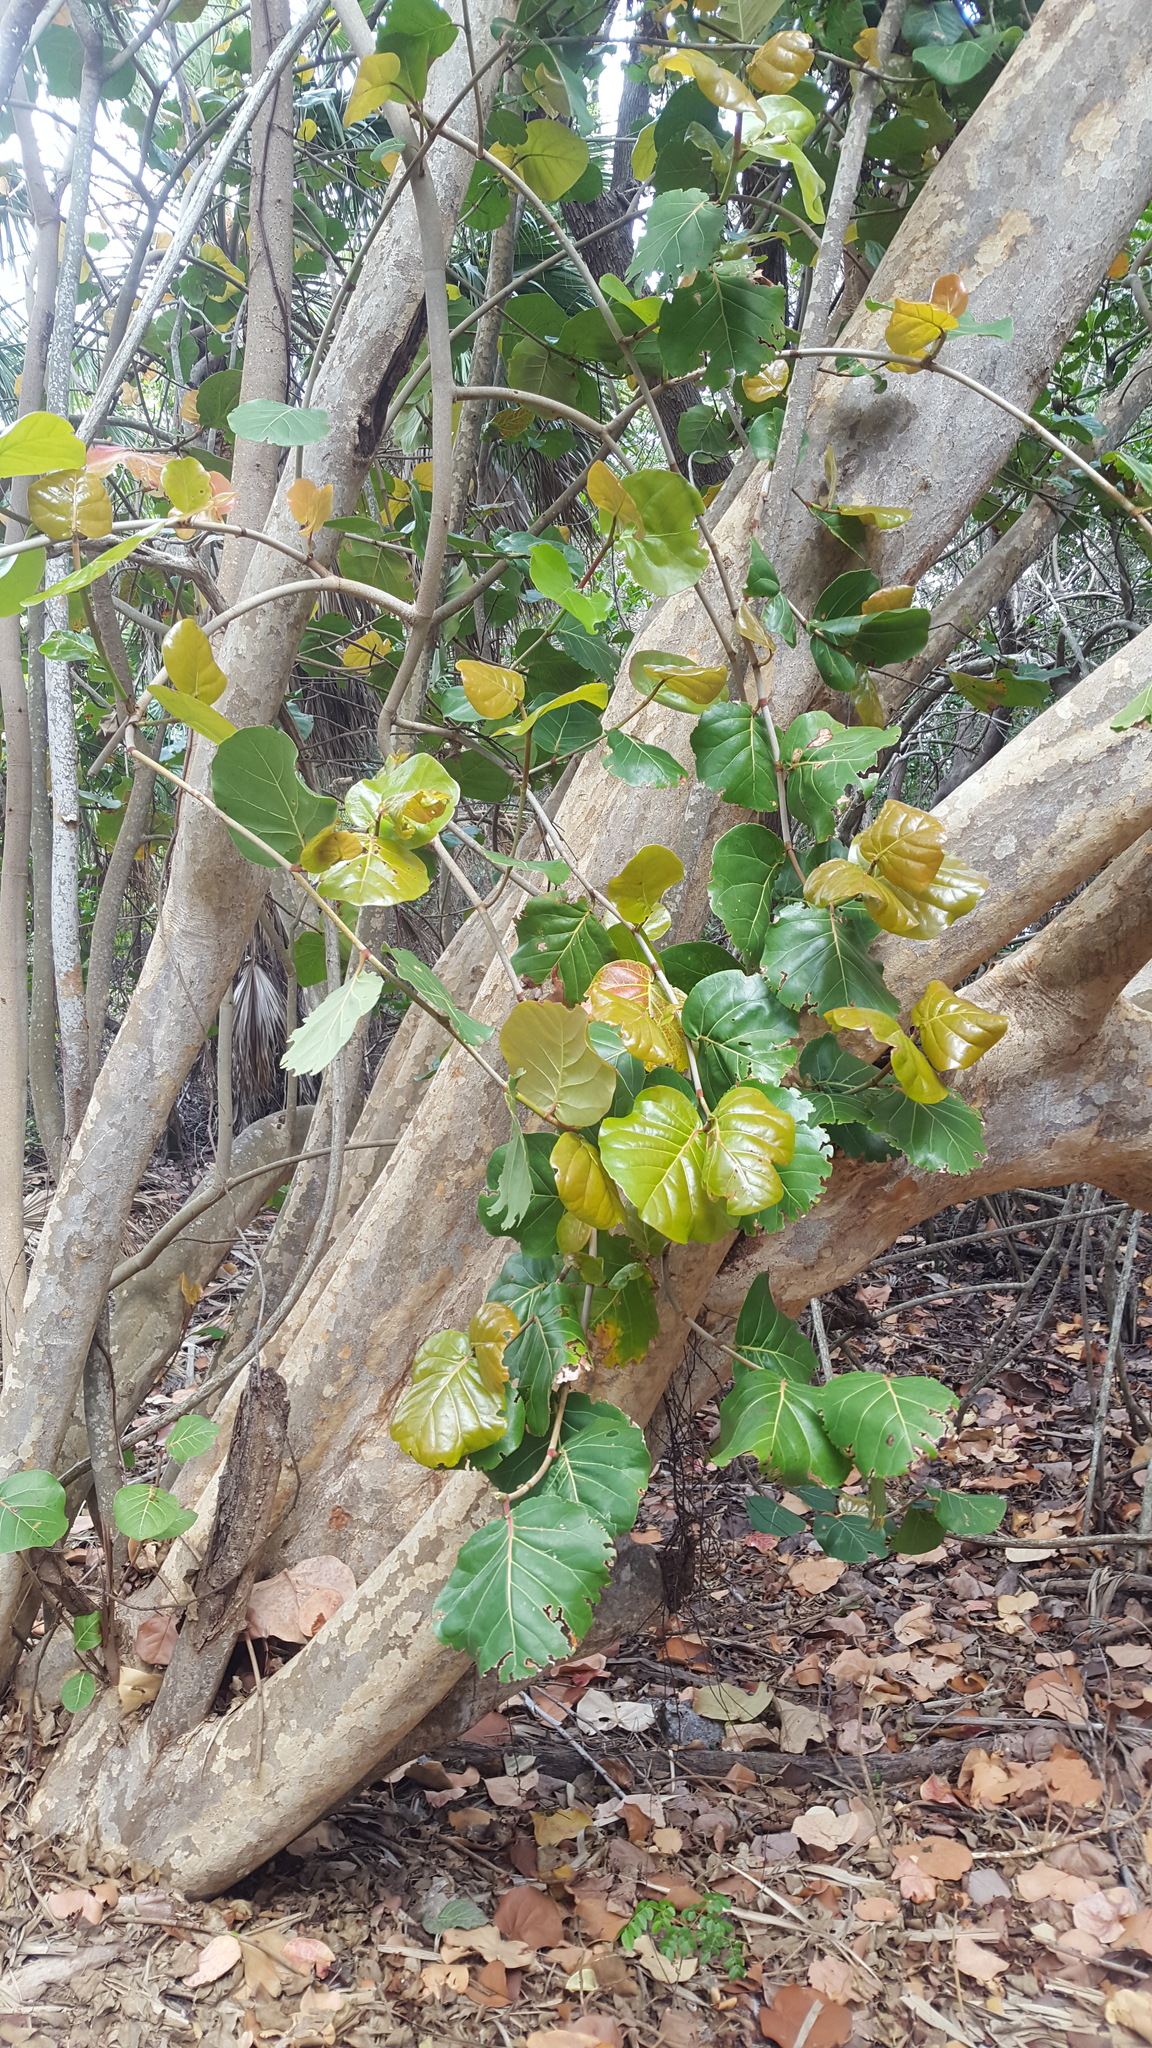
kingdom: Plantae
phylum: Tracheophyta
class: Magnoliopsida
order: Caryophyllales
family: Polygonaceae
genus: Coccoloba
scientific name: Coccoloba uvifera
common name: Seagrape
